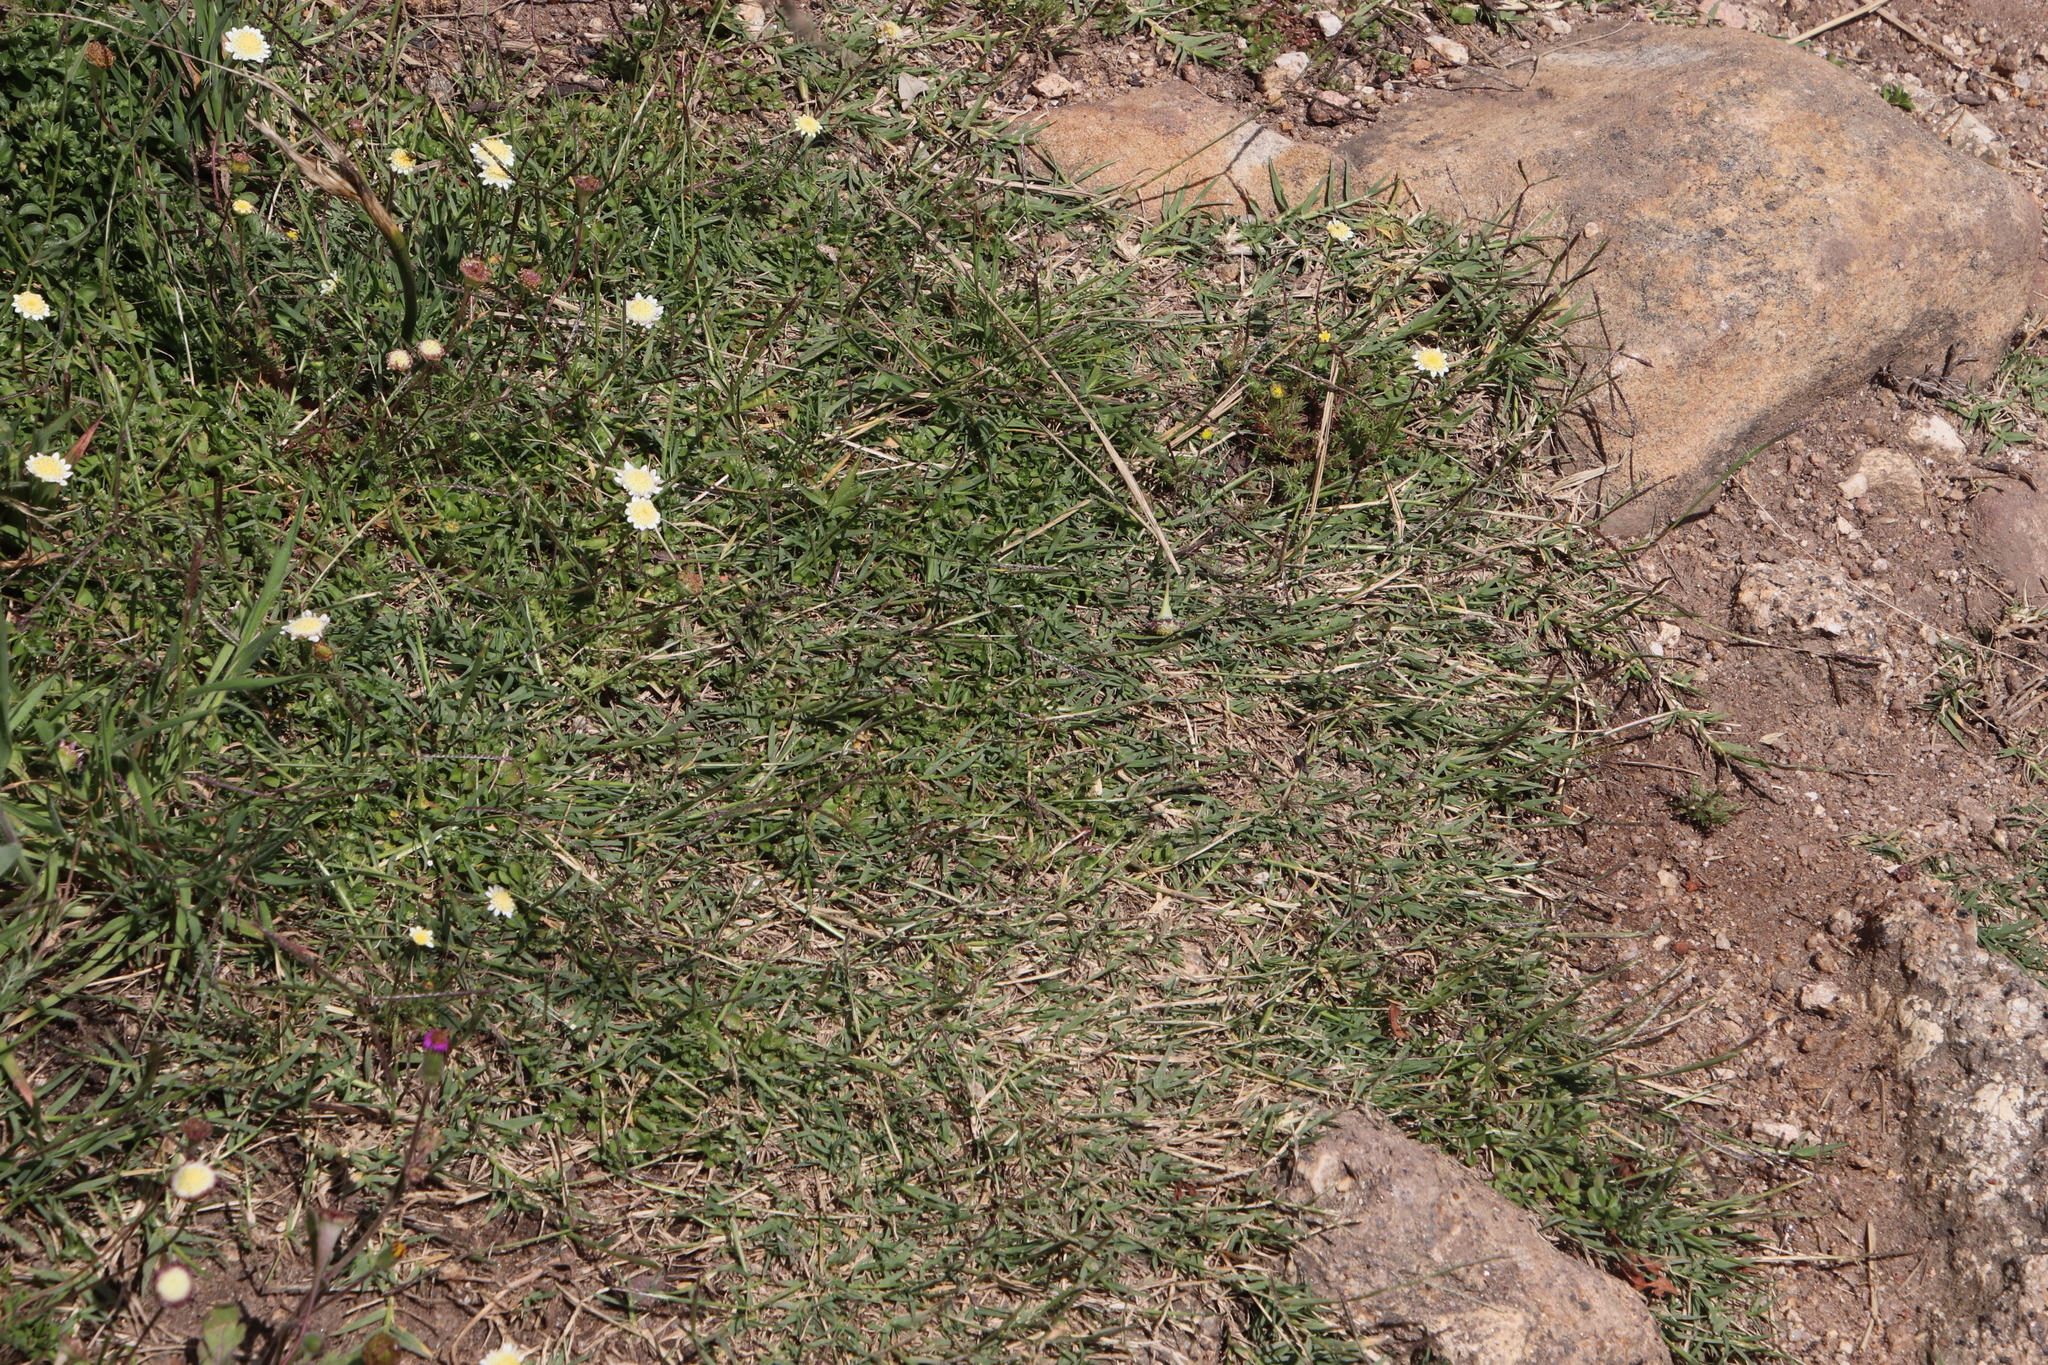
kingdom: Plantae
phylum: Tracheophyta
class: Liliopsida
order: Poales
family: Poaceae
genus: Cynodon
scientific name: Cynodon dactylon
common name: Bermuda grass
